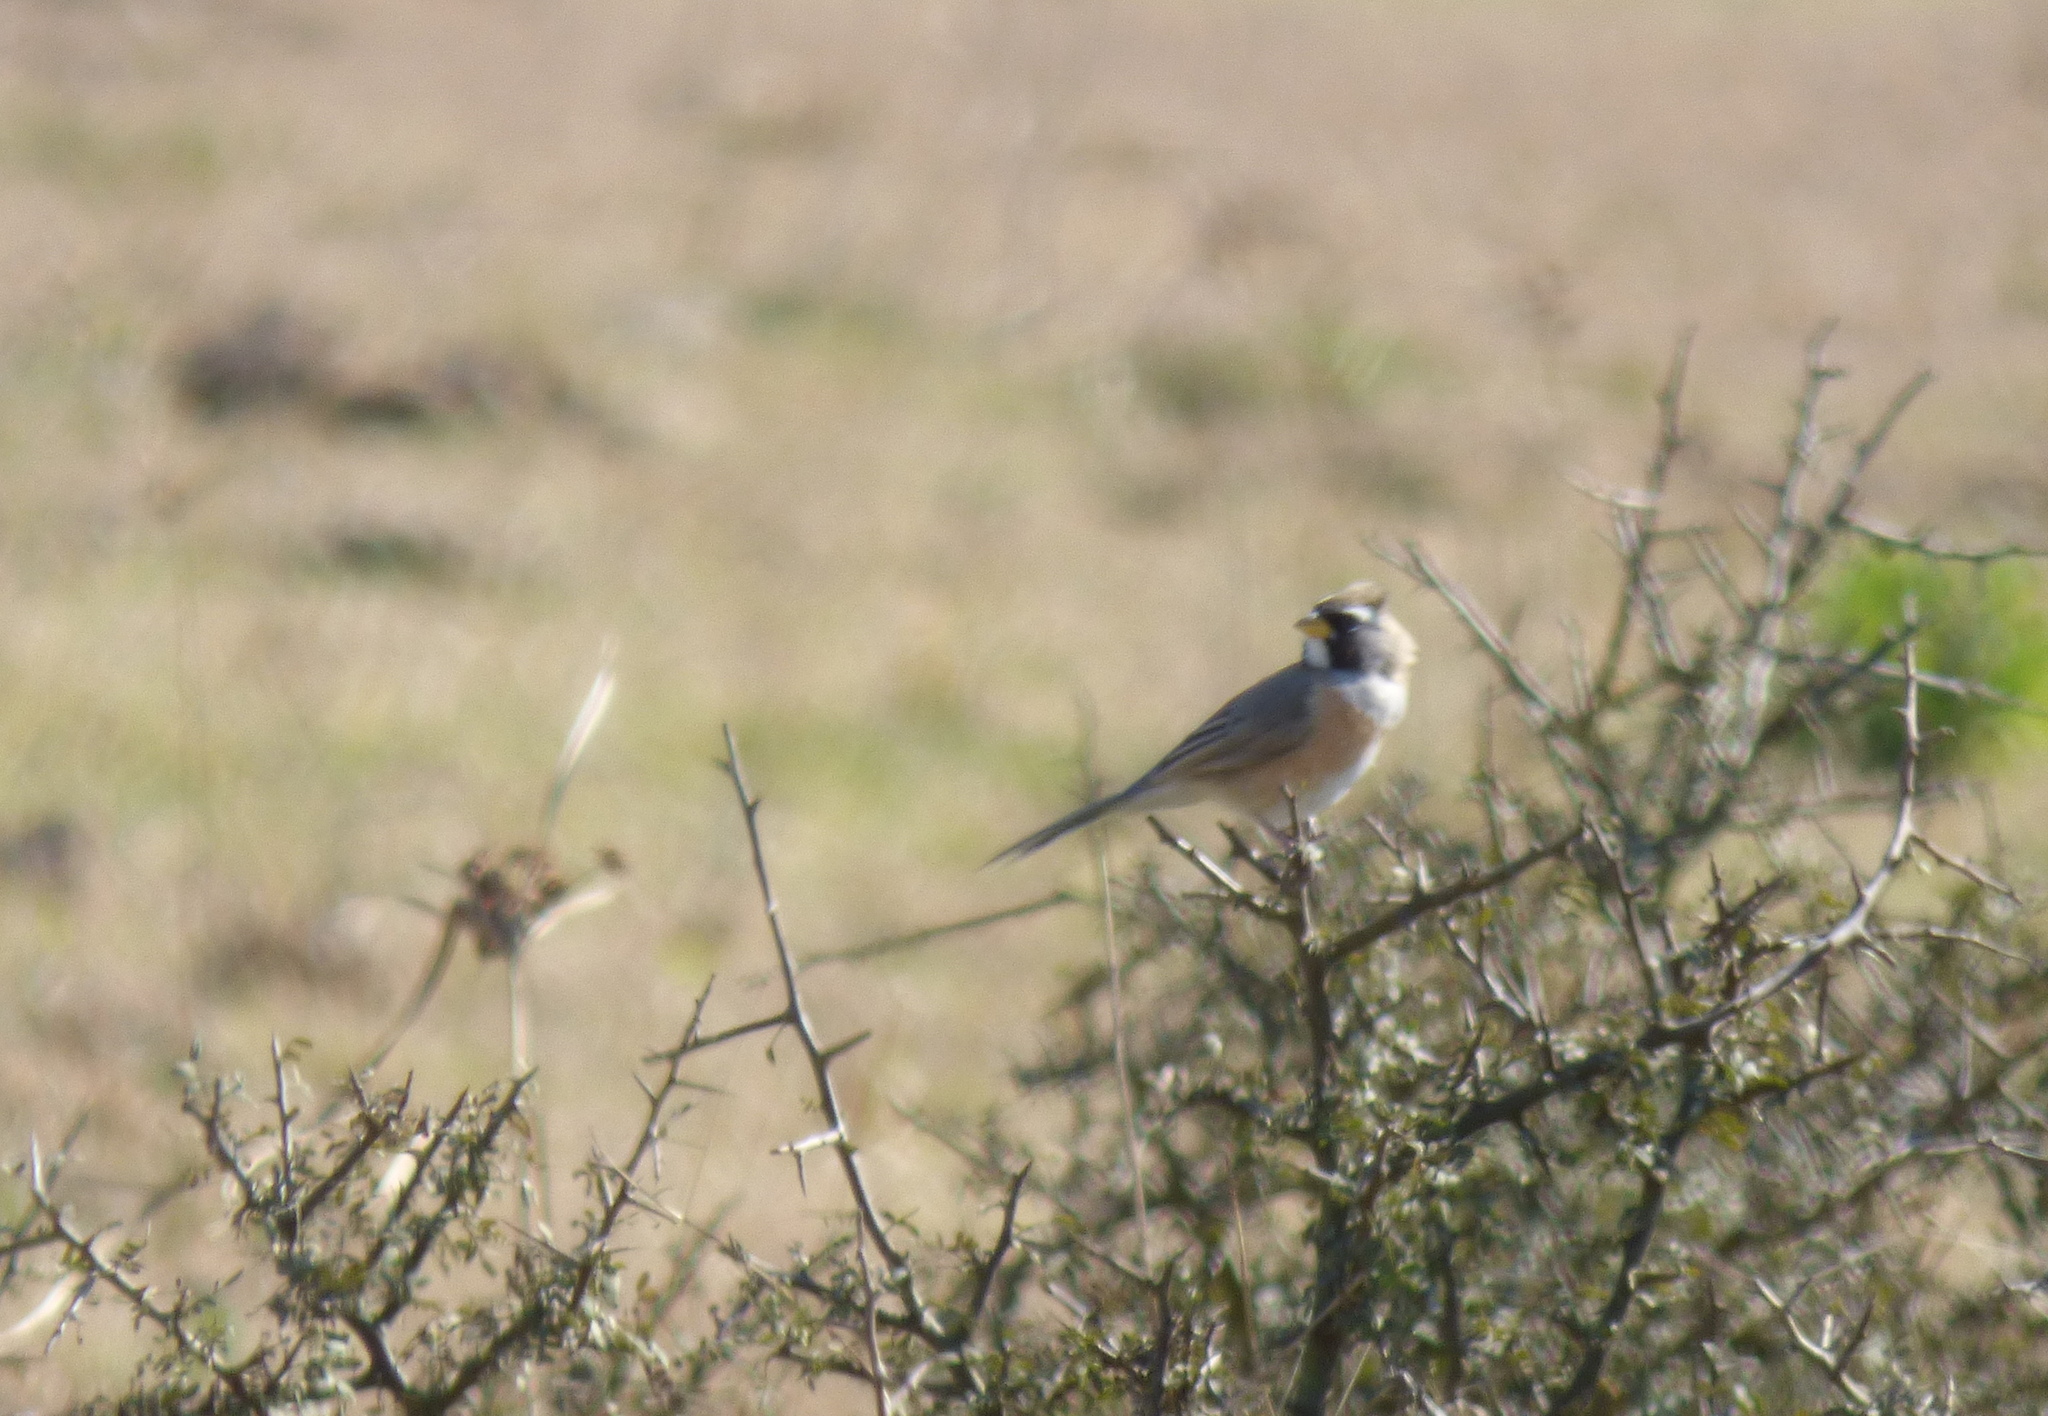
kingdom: Animalia
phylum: Chordata
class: Aves
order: Passeriformes
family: Thraupidae
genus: Saltatricula
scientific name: Saltatricula multicolor
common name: Many-colored chaco finch
